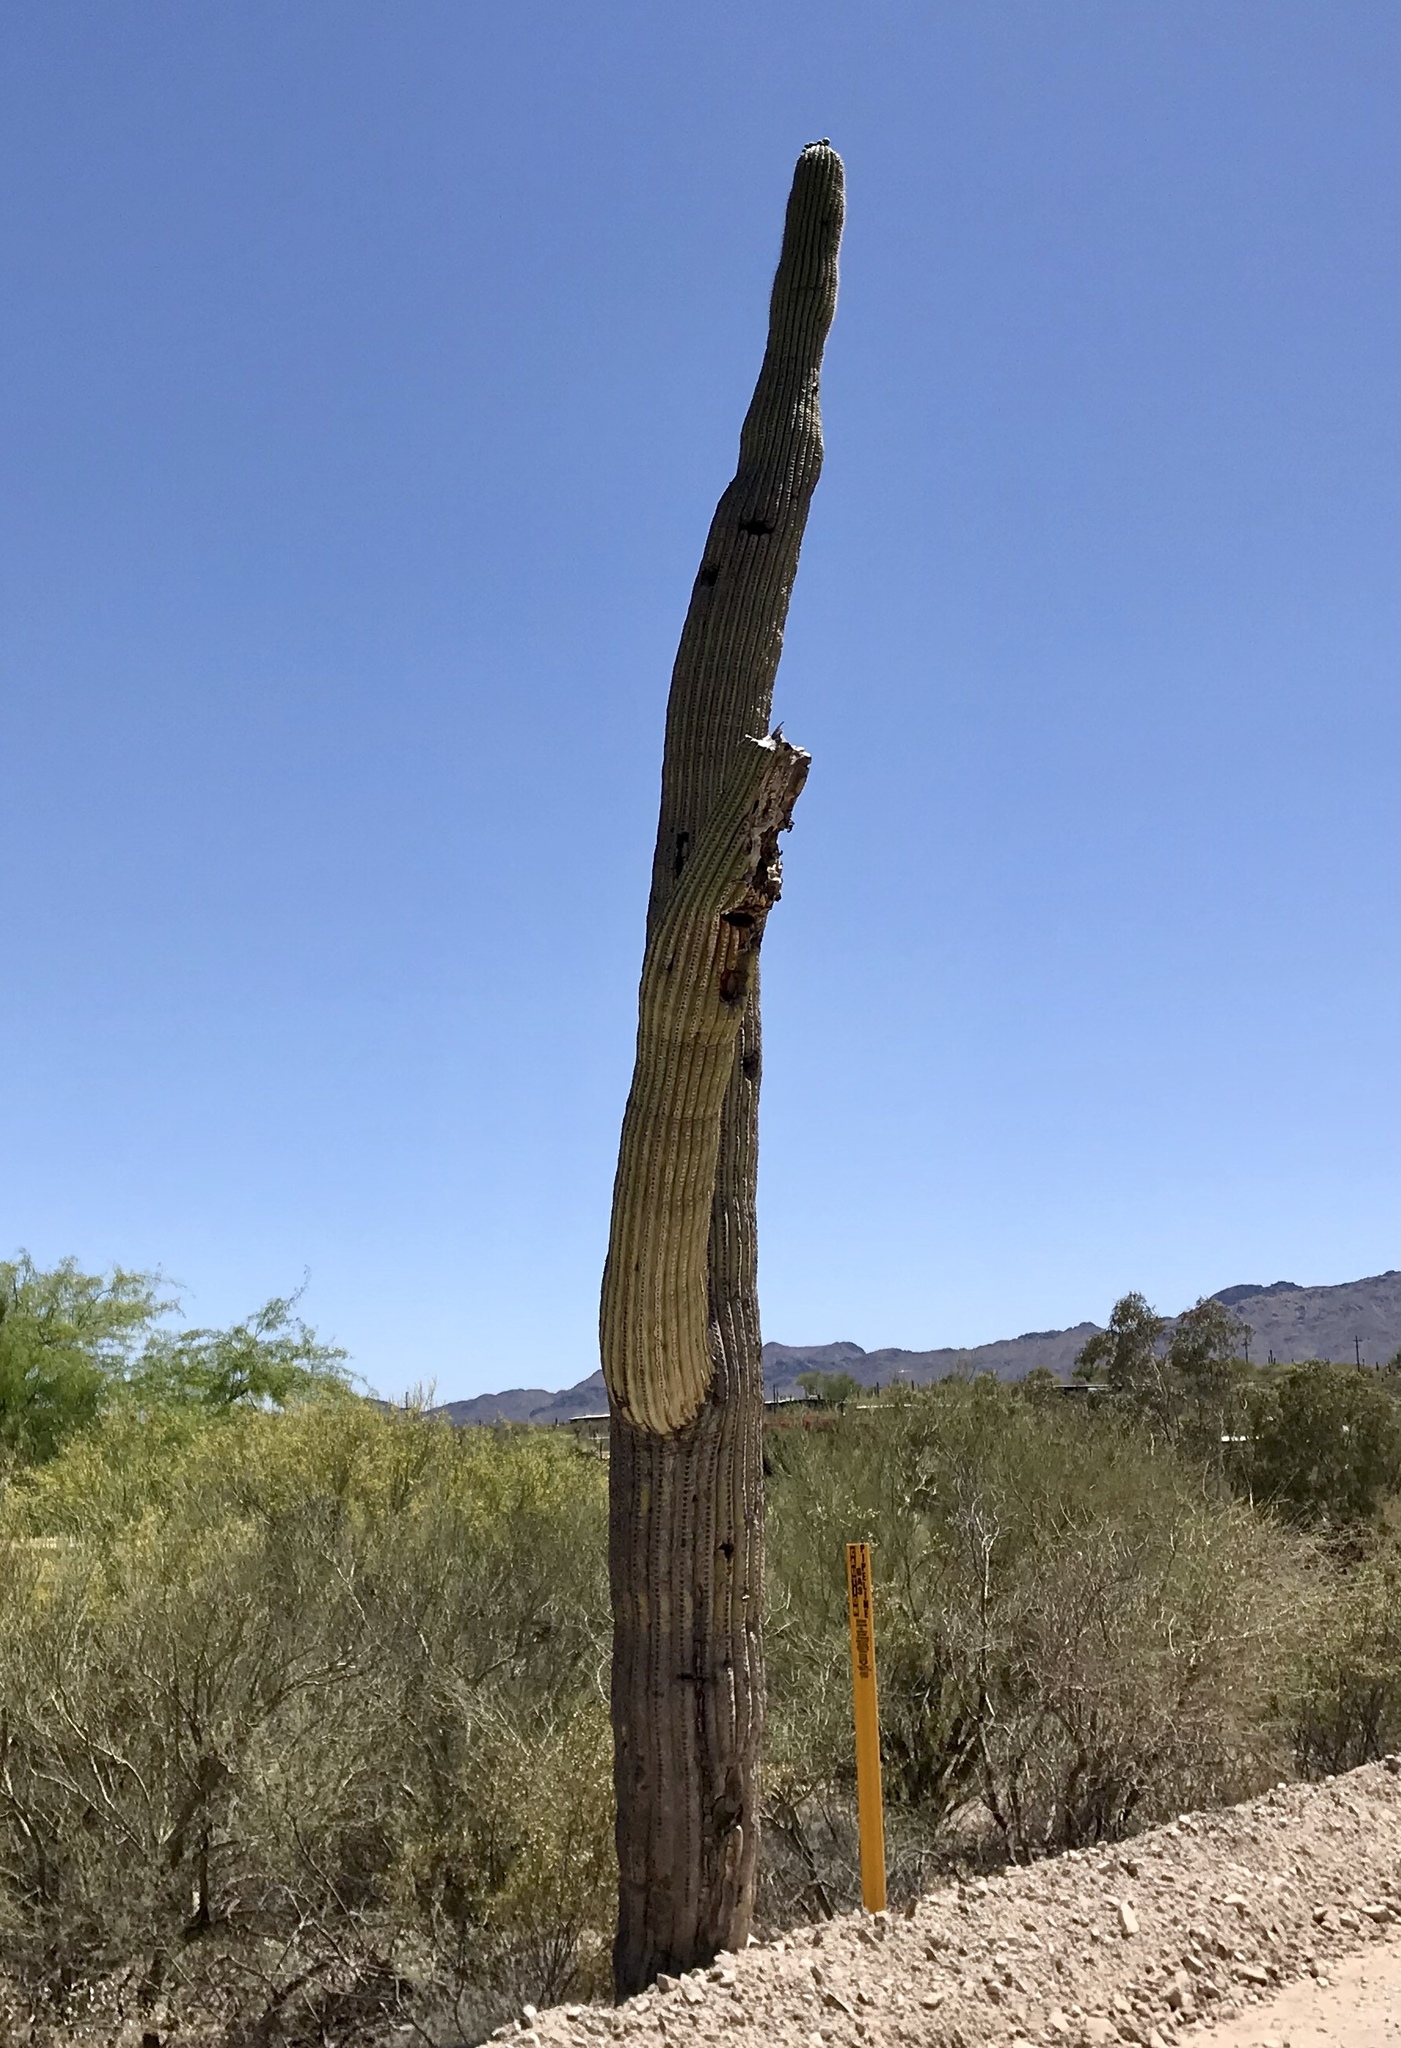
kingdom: Plantae
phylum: Tracheophyta
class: Magnoliopsida
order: Caryophyllales
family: Cactaceae
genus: Carnegiea
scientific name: Carnegiea gigantea
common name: Saguaro
